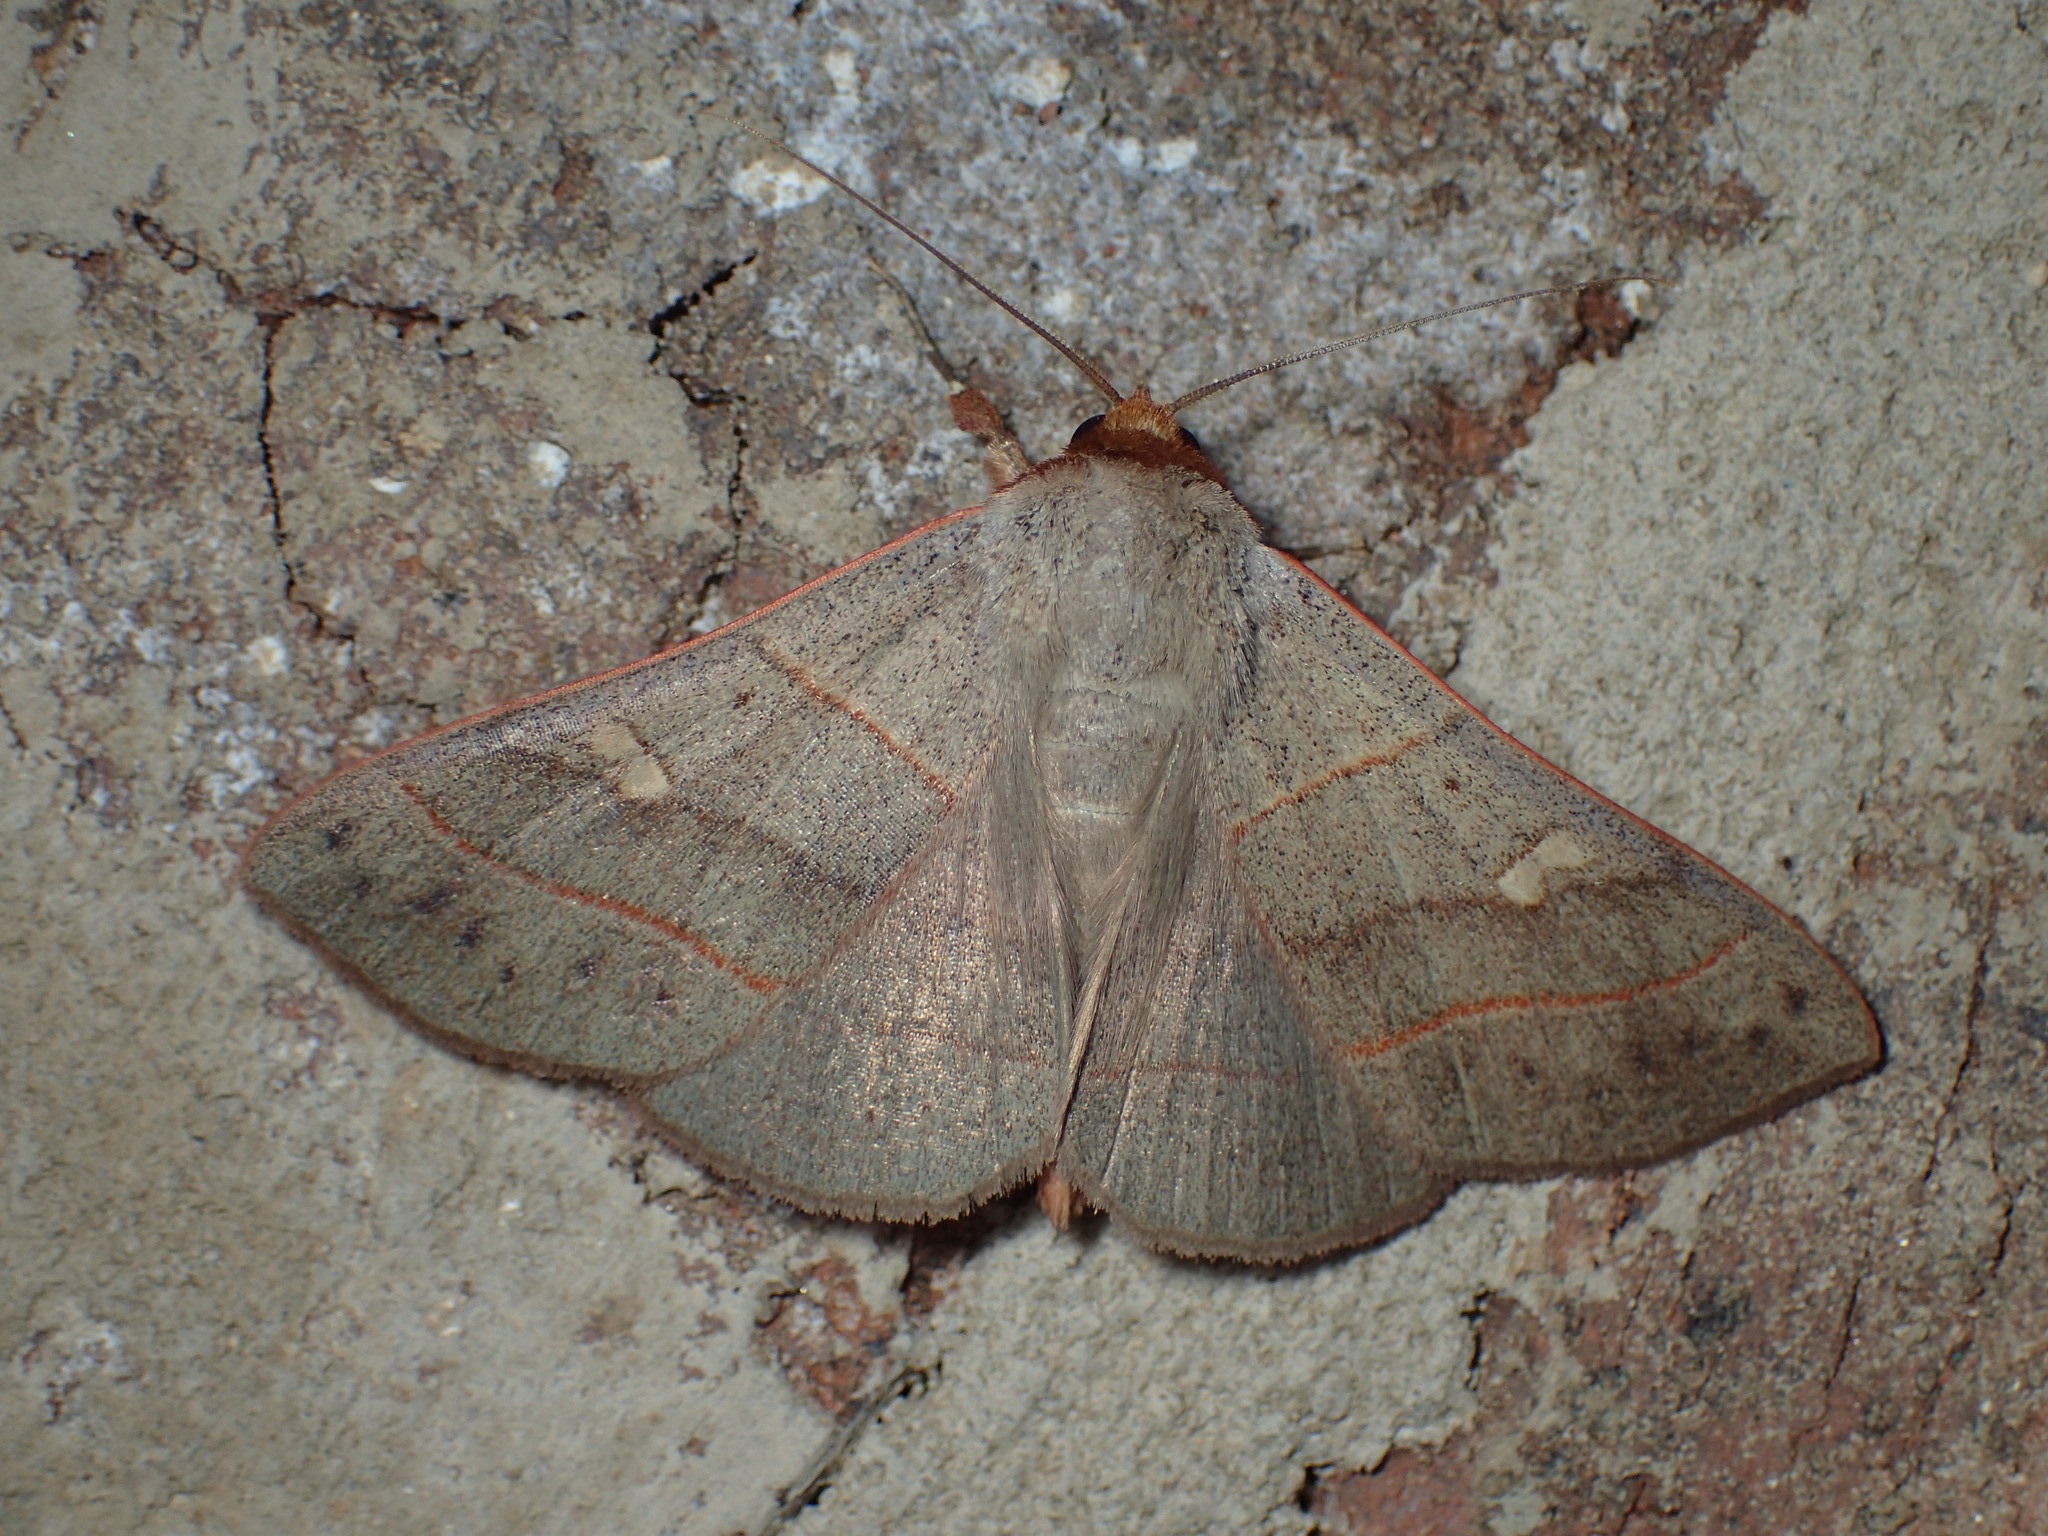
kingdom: Animalia
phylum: Arthropoda
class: Insecta
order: Lepidoptera
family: Erebidae
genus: Panopoda
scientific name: Panopoda rufimargo
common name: Red-lined panopoda moth
